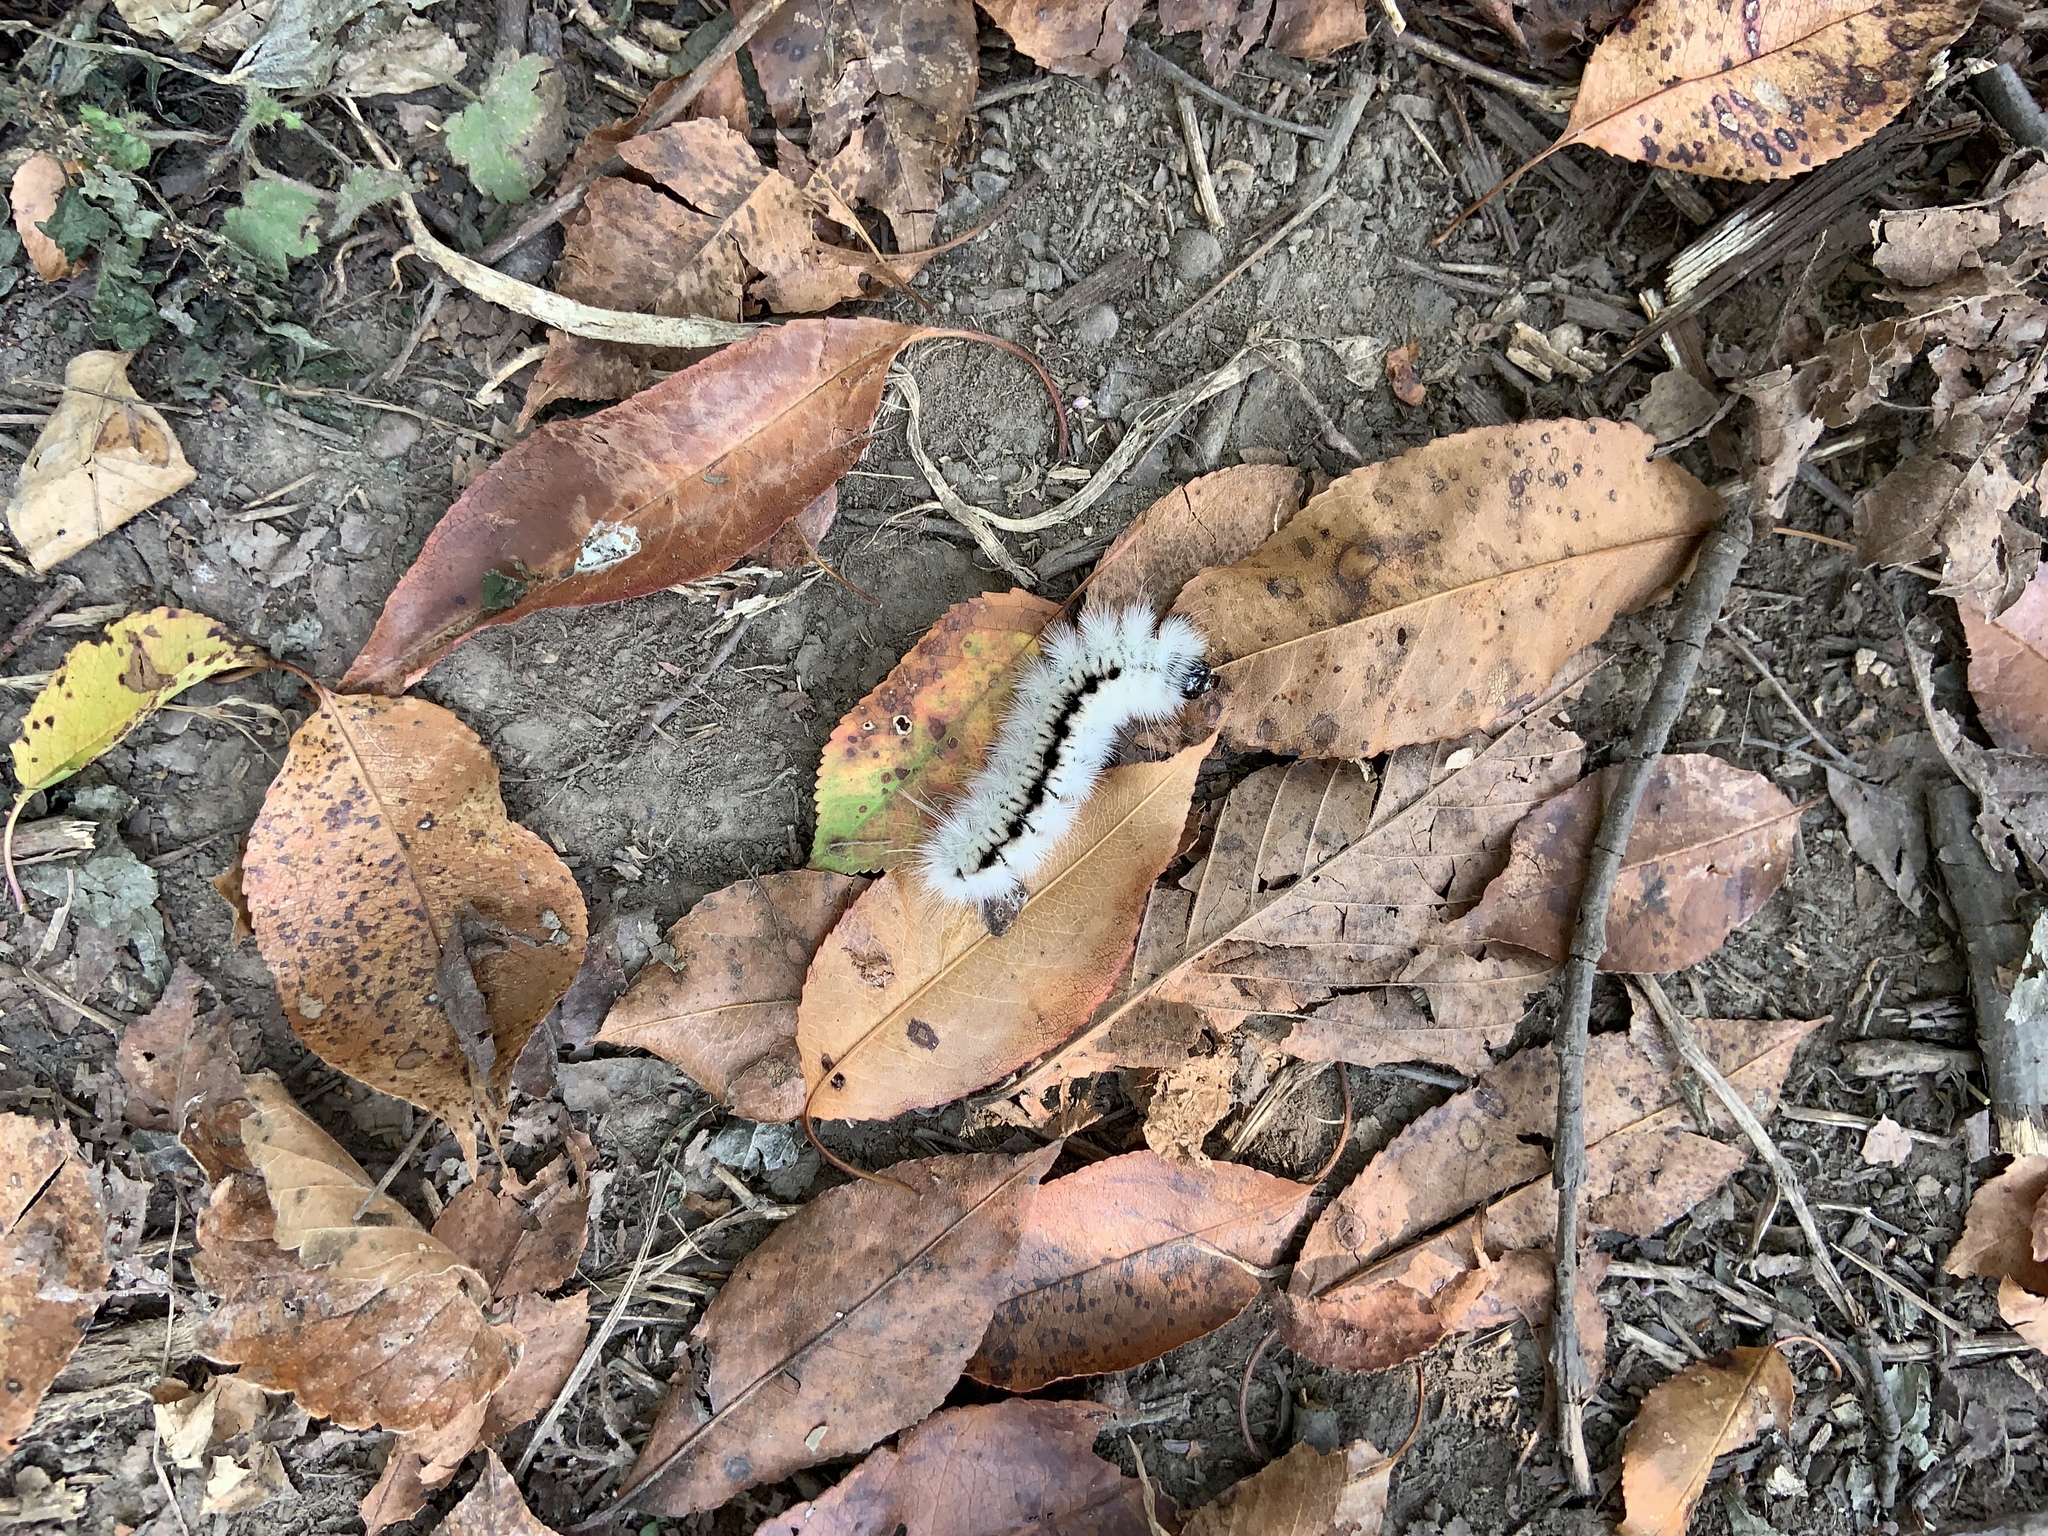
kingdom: Animalia
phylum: Arthropoda
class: Insecta
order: Lepidoptera
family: Erebidae
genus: Lophocampa
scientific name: Lophocampa caryae
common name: Hickory tussock moth
